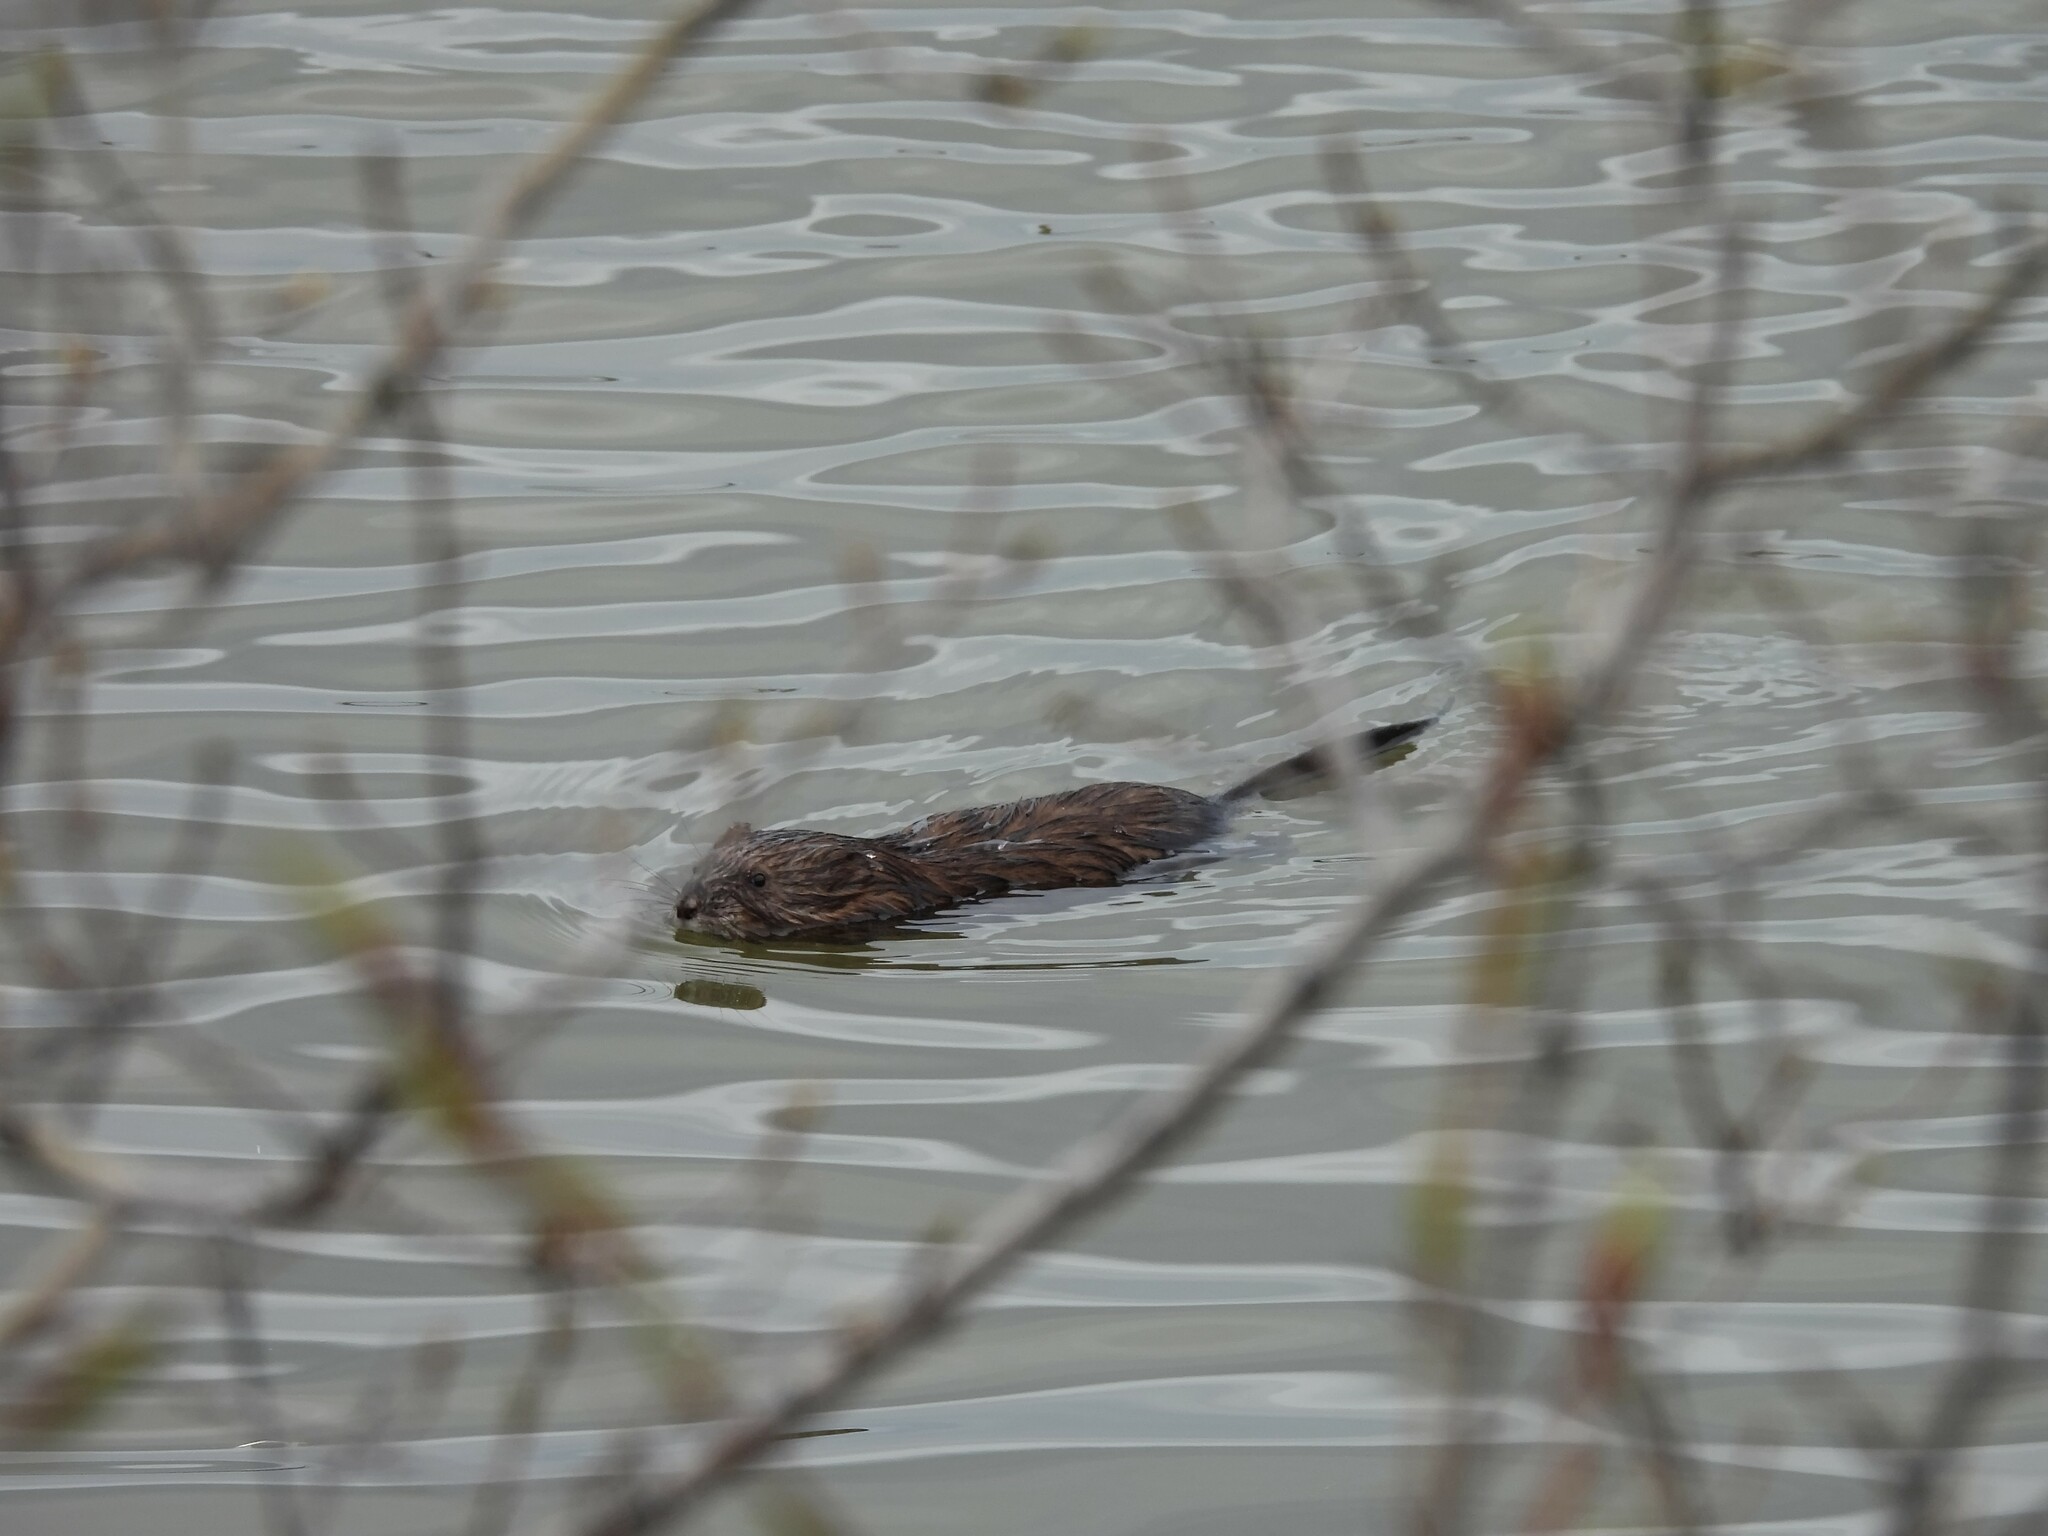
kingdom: Animalia
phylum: Chordata
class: Mammalia
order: Rodentia
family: Cricetidae
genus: Ondatra
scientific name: Ondatra zibethicus
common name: Muskrat
